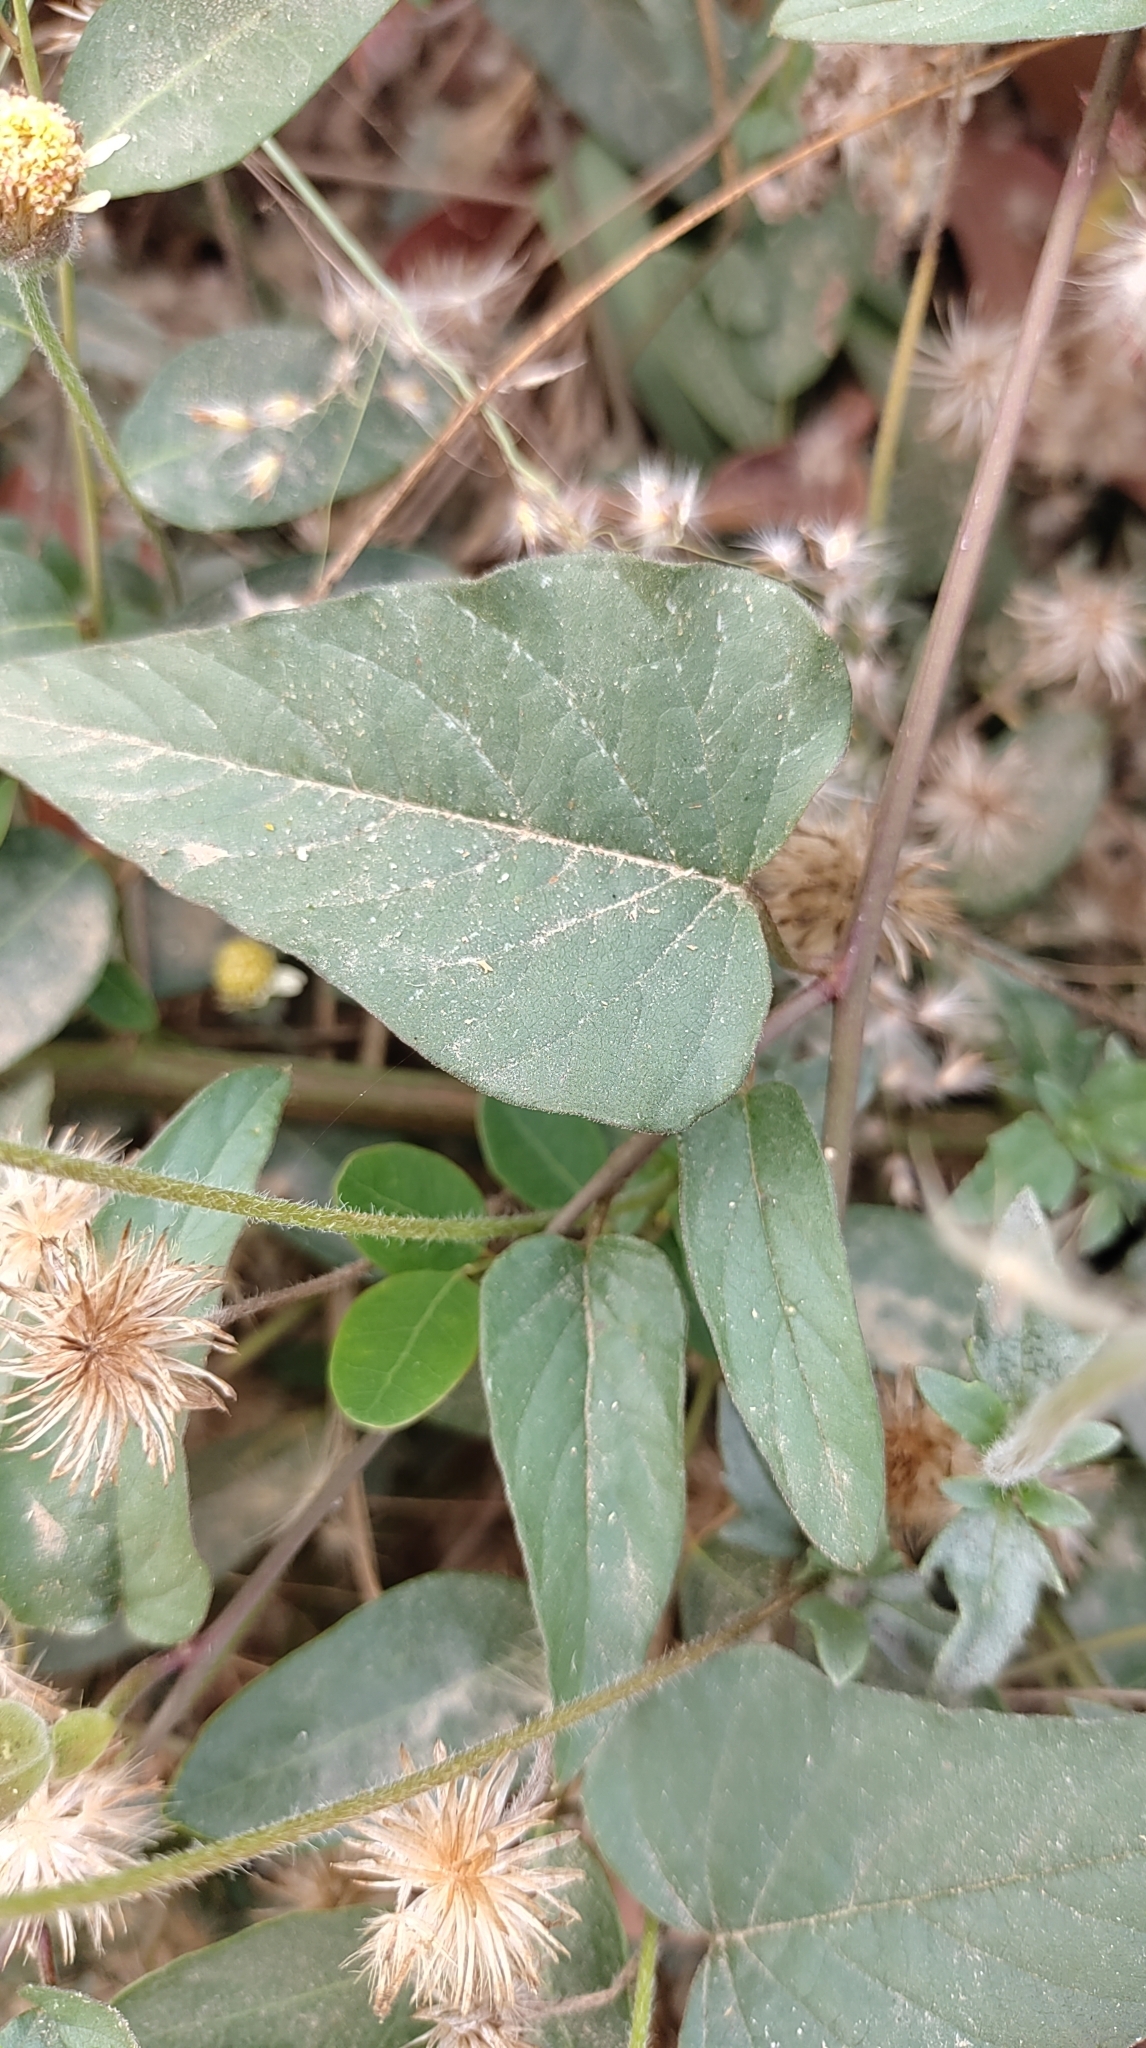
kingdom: Plantae
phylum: Tracheophyta
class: Magnoliopsida
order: Solanales
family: Convolvulaceae
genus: Operculina
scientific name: Operculina turpethum
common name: Transparent wood-rose
